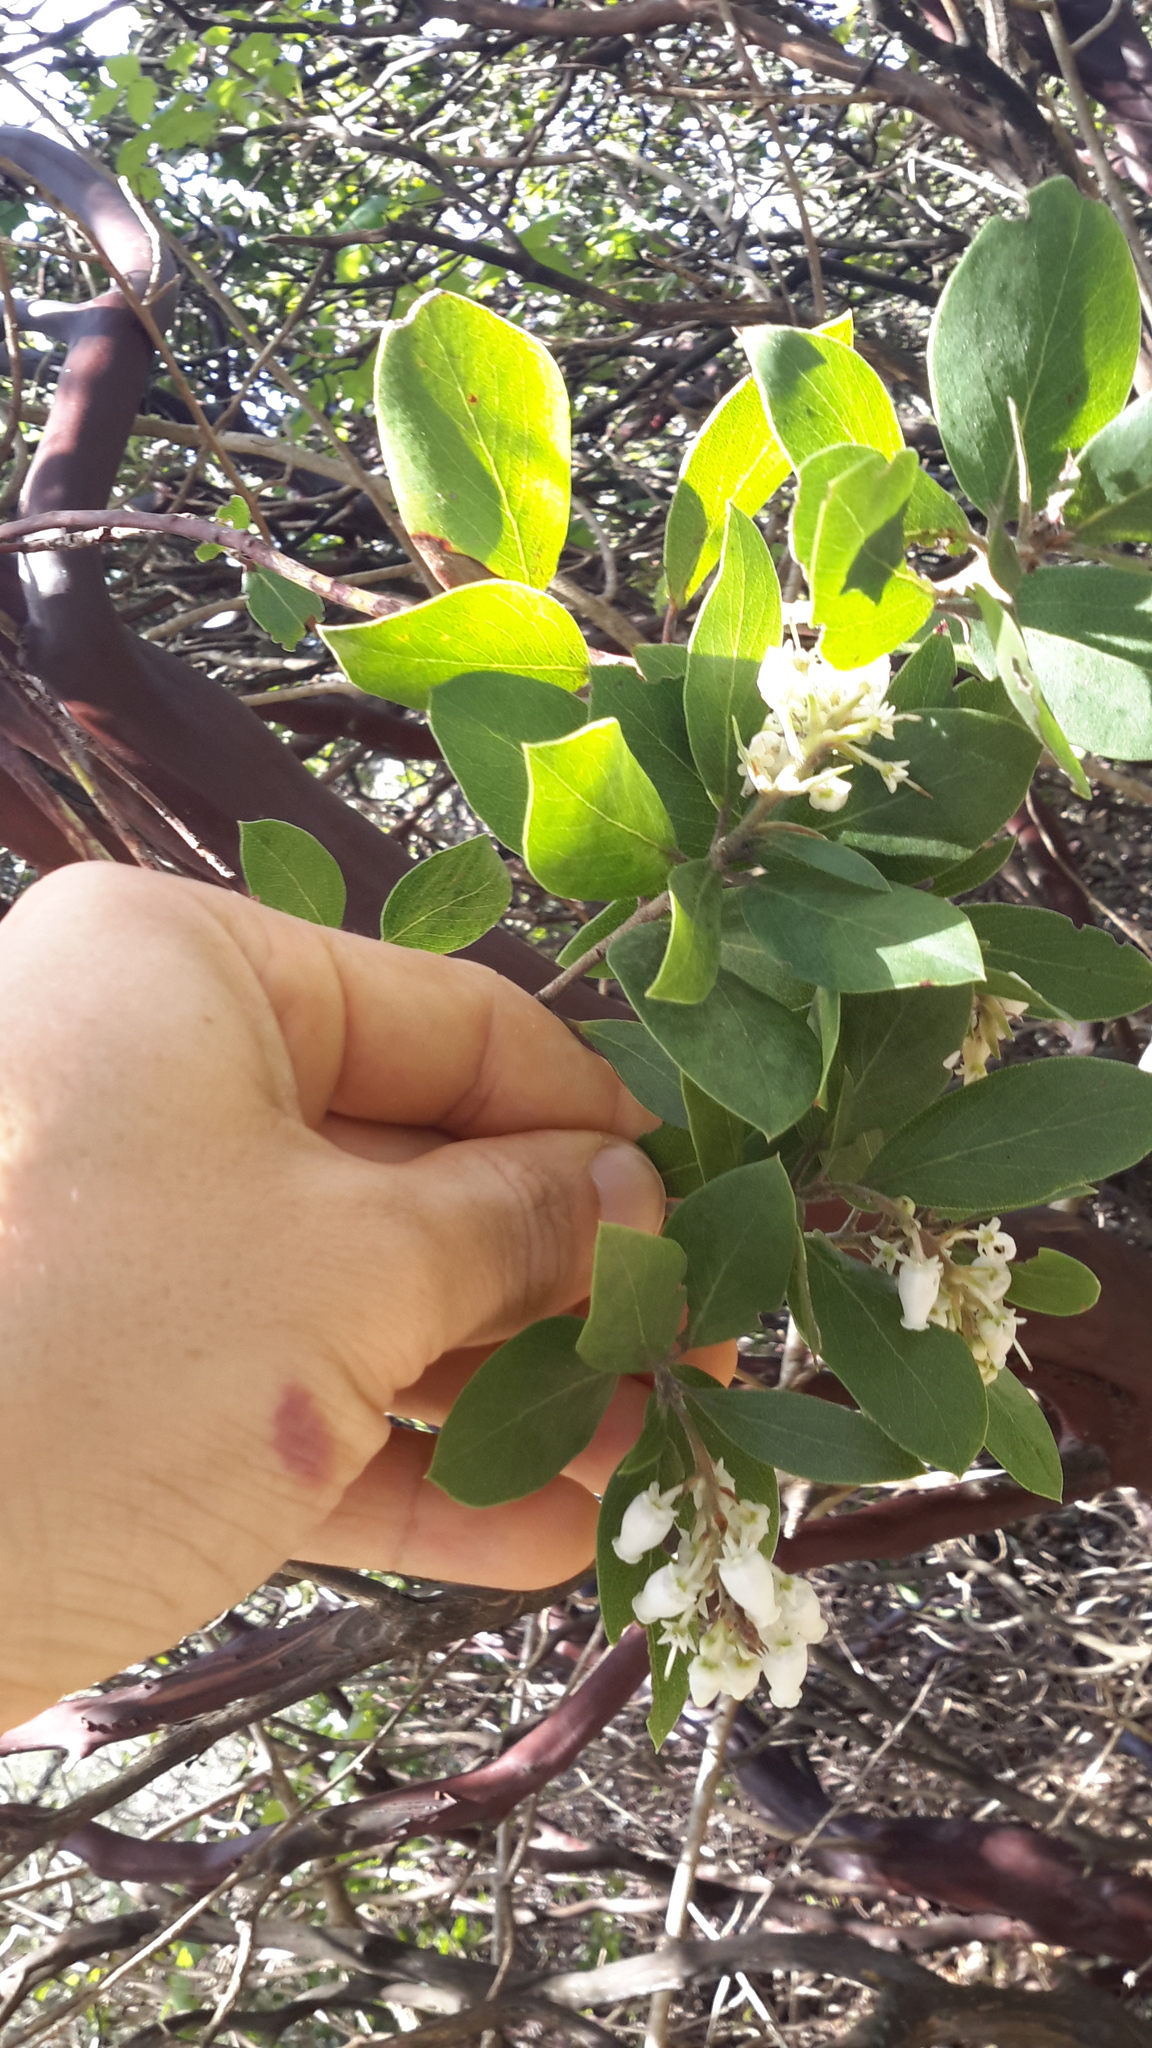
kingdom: Plantae
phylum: Tracheophyta
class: Magnoliopsida
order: Ericales
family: Ericaceae
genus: Arctostaphylos
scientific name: Arctostaphylos glandulosa
